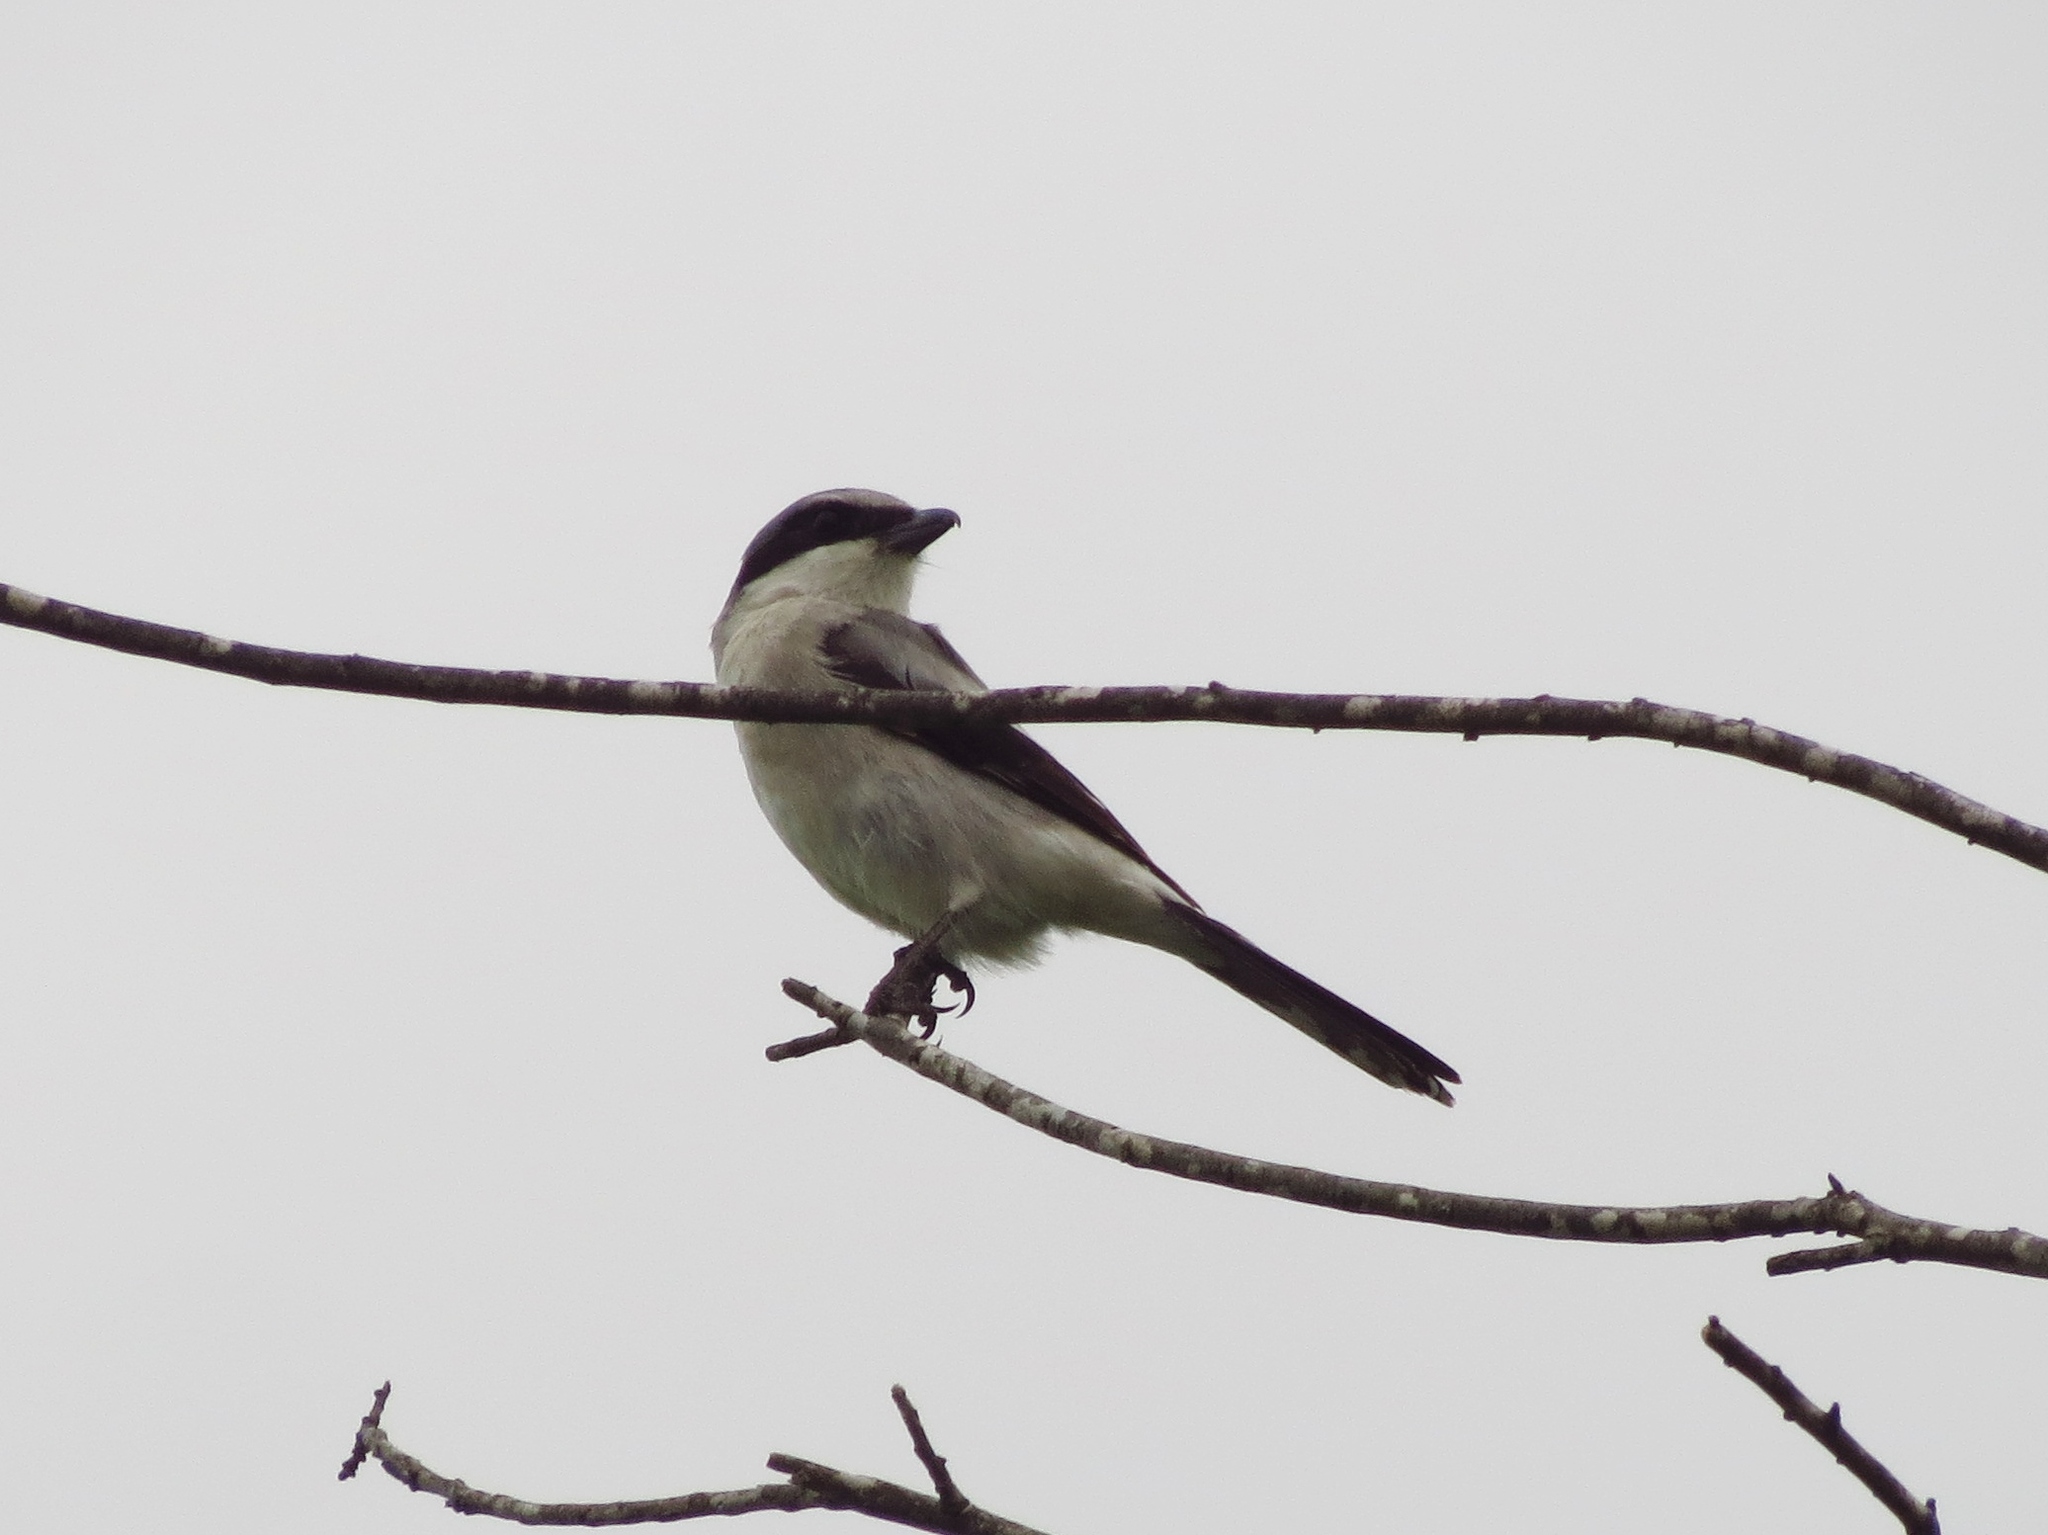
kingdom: Animalia
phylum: Chordata
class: Aves
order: Passeriformes
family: Laniidae
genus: Lanius
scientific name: Lanius ludovicianus
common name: Loggerhead shrike
